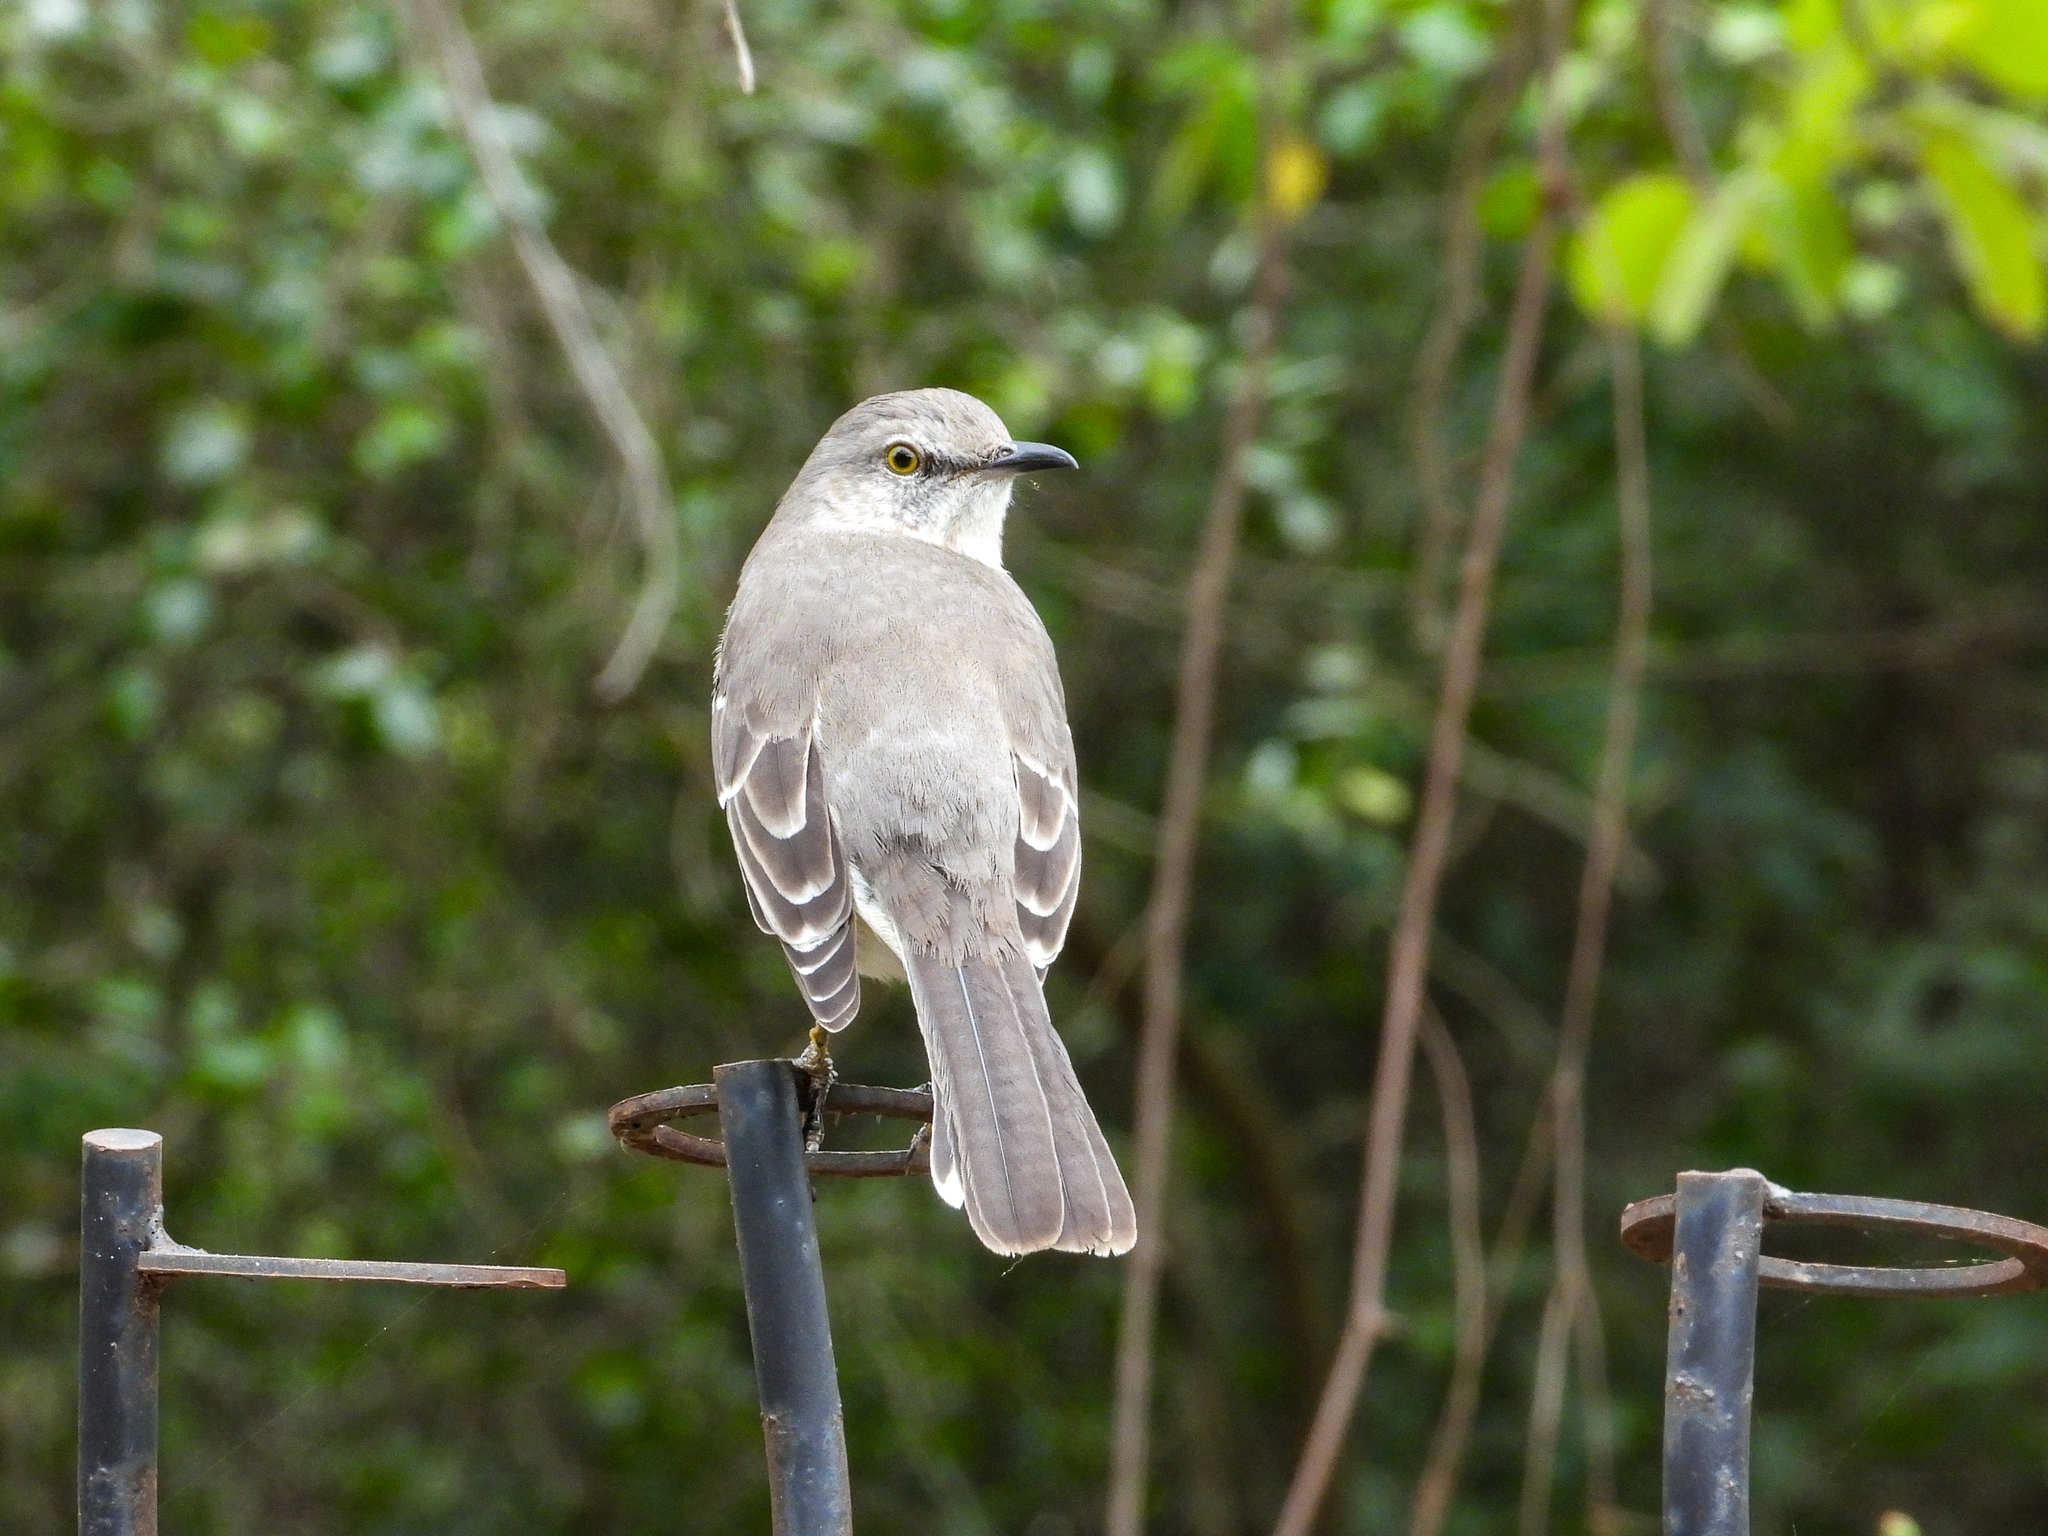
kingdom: Animalia
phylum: Chordata
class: Aves
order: Passeriformes
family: Mimidae
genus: Mimus
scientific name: Mimus polyglottos
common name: Northern mockingbird
